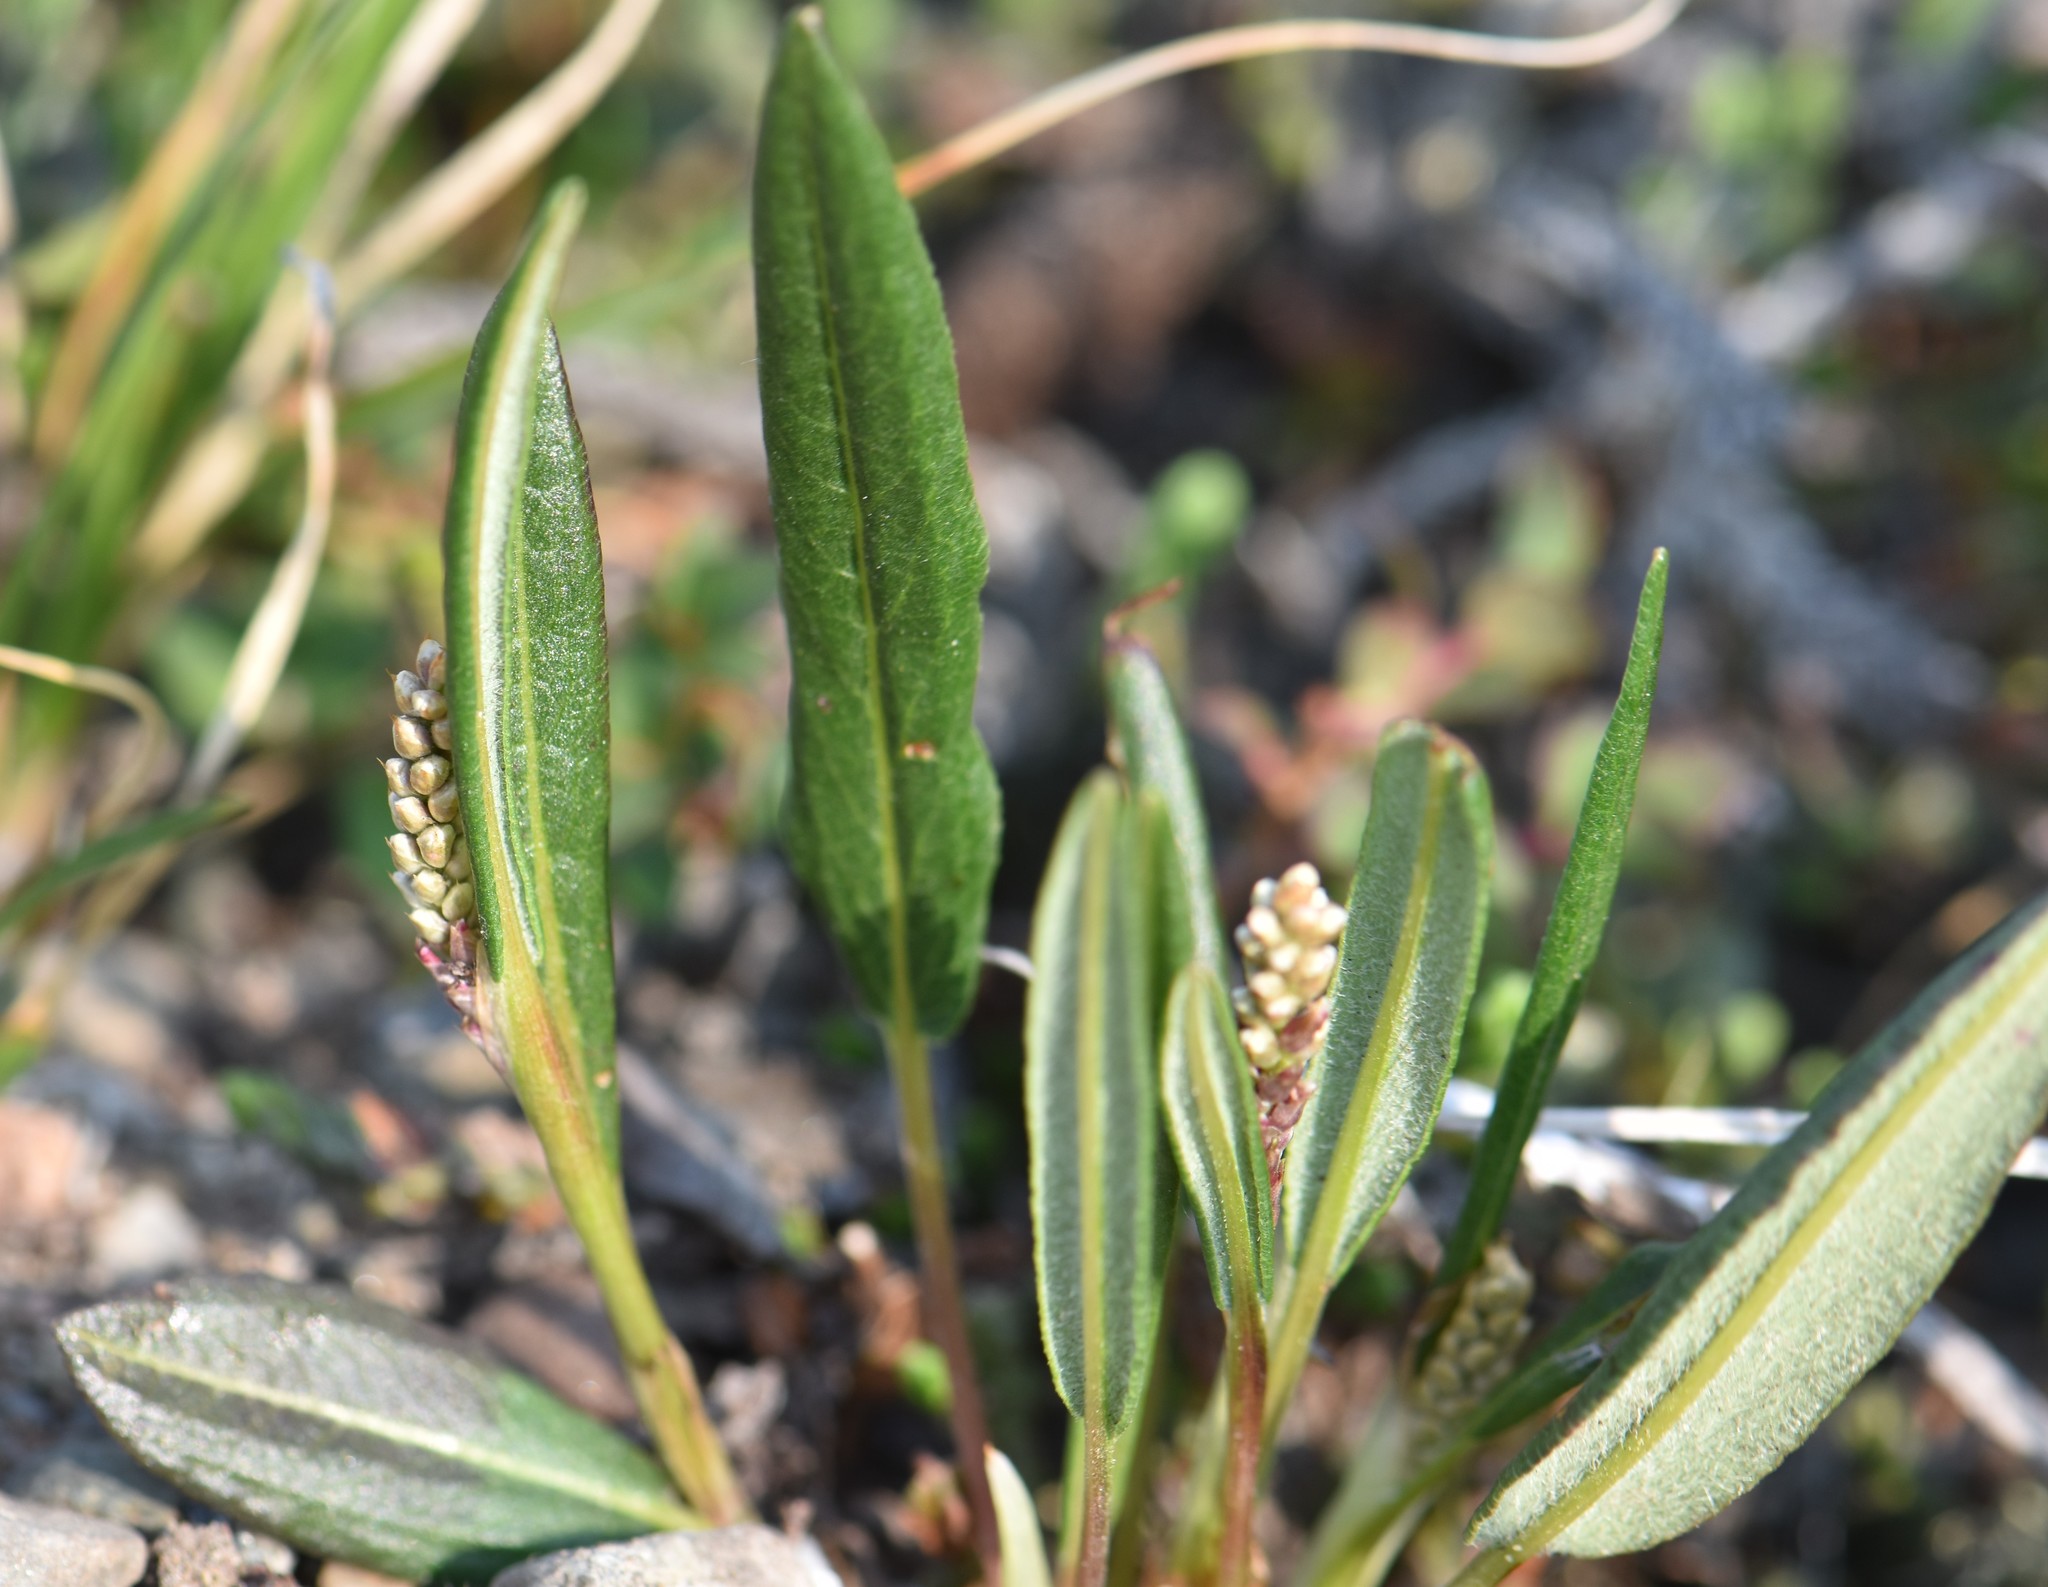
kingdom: Plantae
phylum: Tracheophyta
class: Magnoliopsida
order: Caryophyllales
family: Polygonaceae
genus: Bistorta
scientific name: Bistorta vivipara
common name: Alpine bistort
